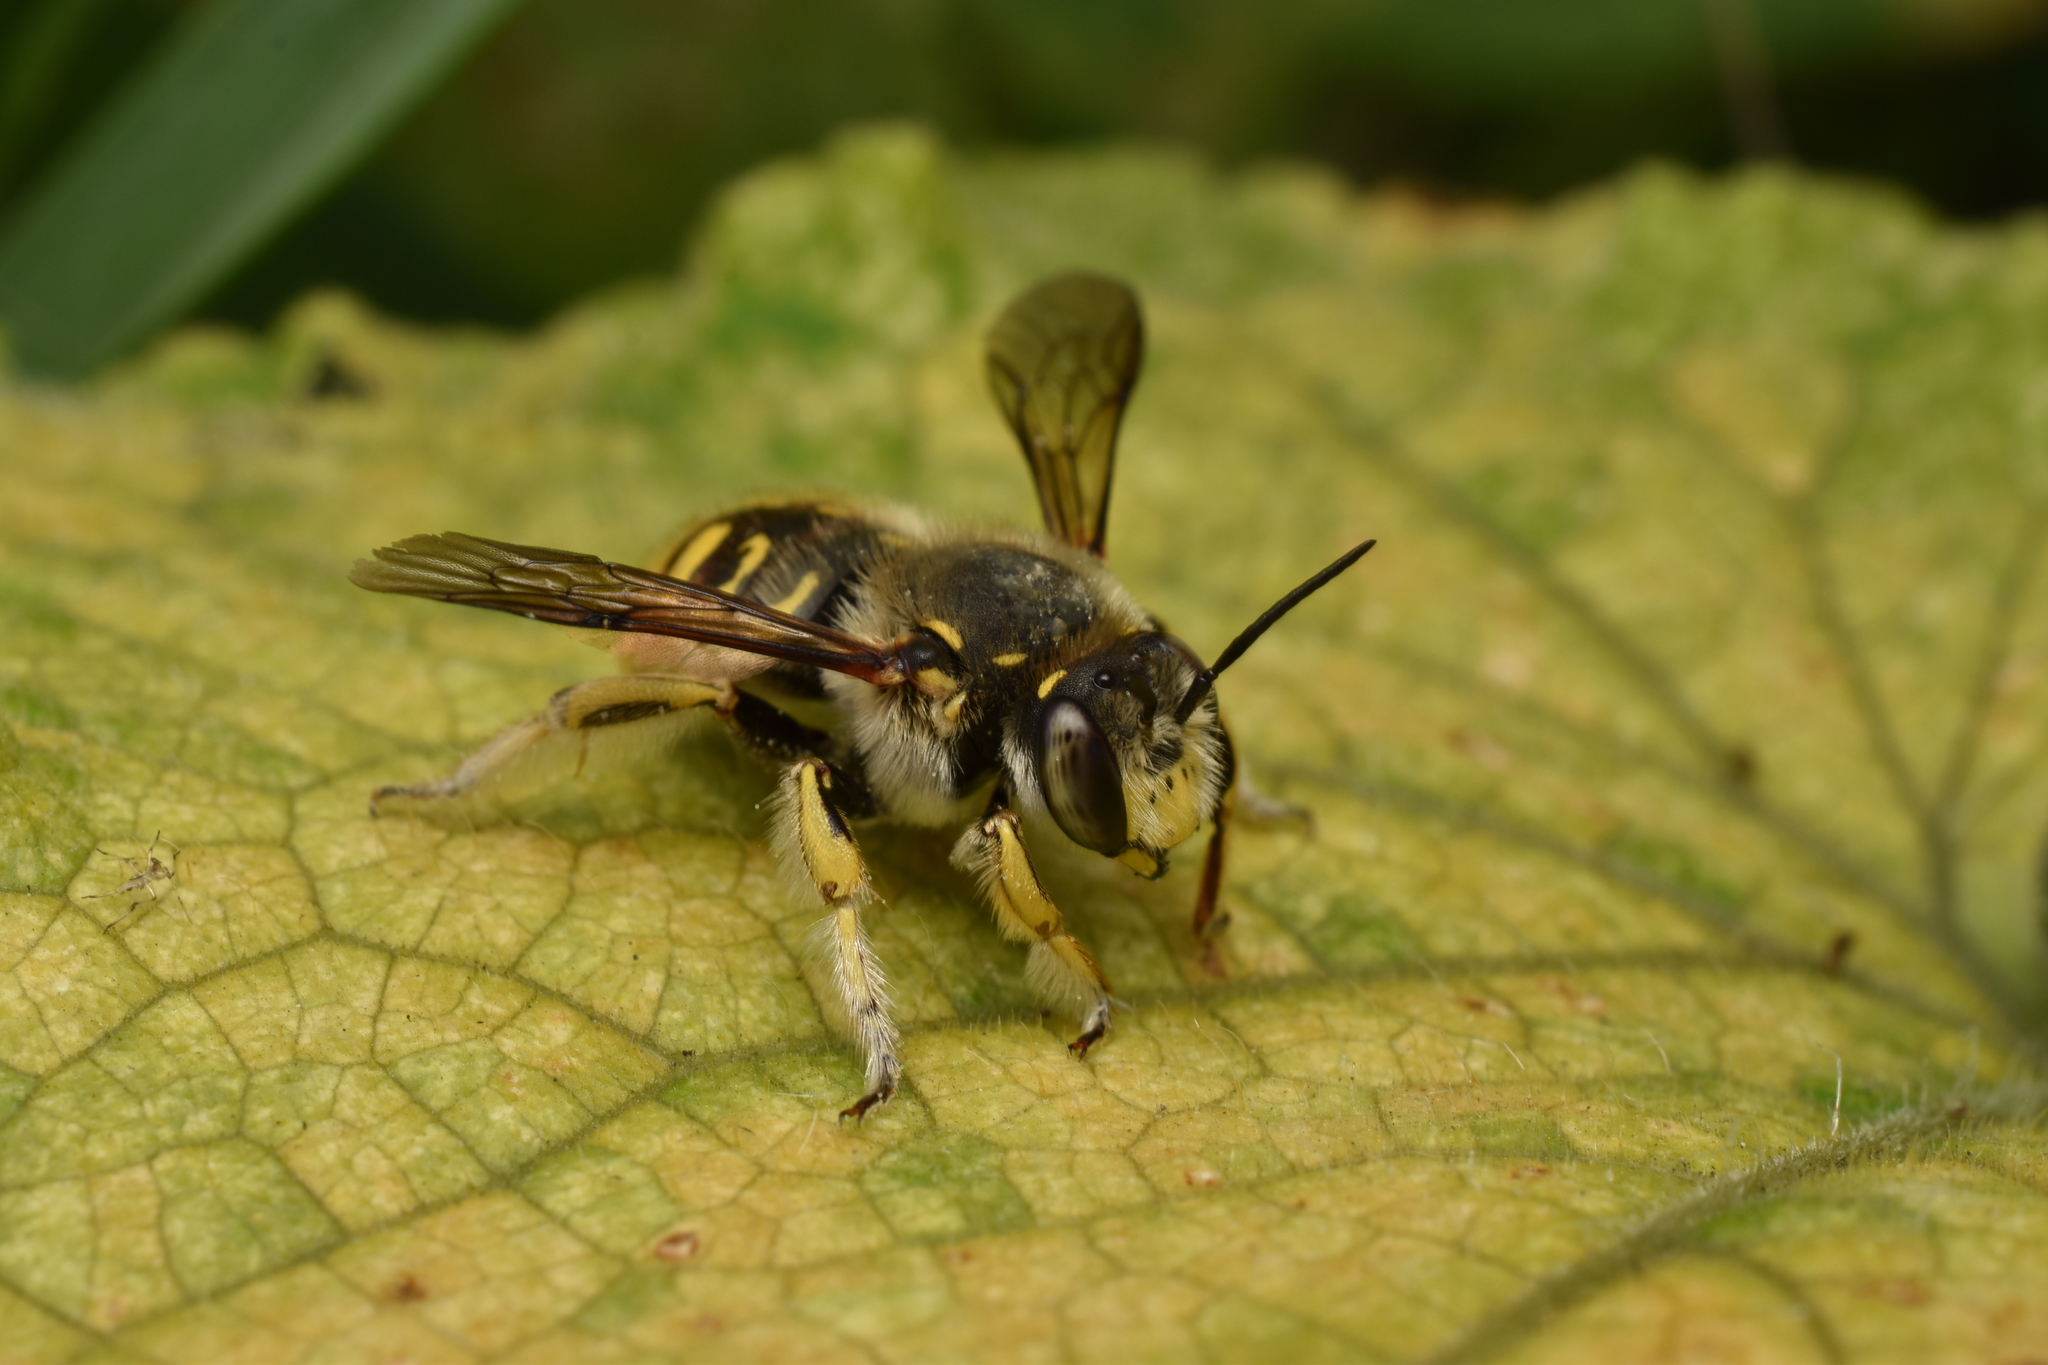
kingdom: Animalia
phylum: Arthropoda
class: Insecta
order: Hymenoptera
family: Megachilidae
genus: Anthidium
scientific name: Anthidium manicatum
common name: Wool carder bee
